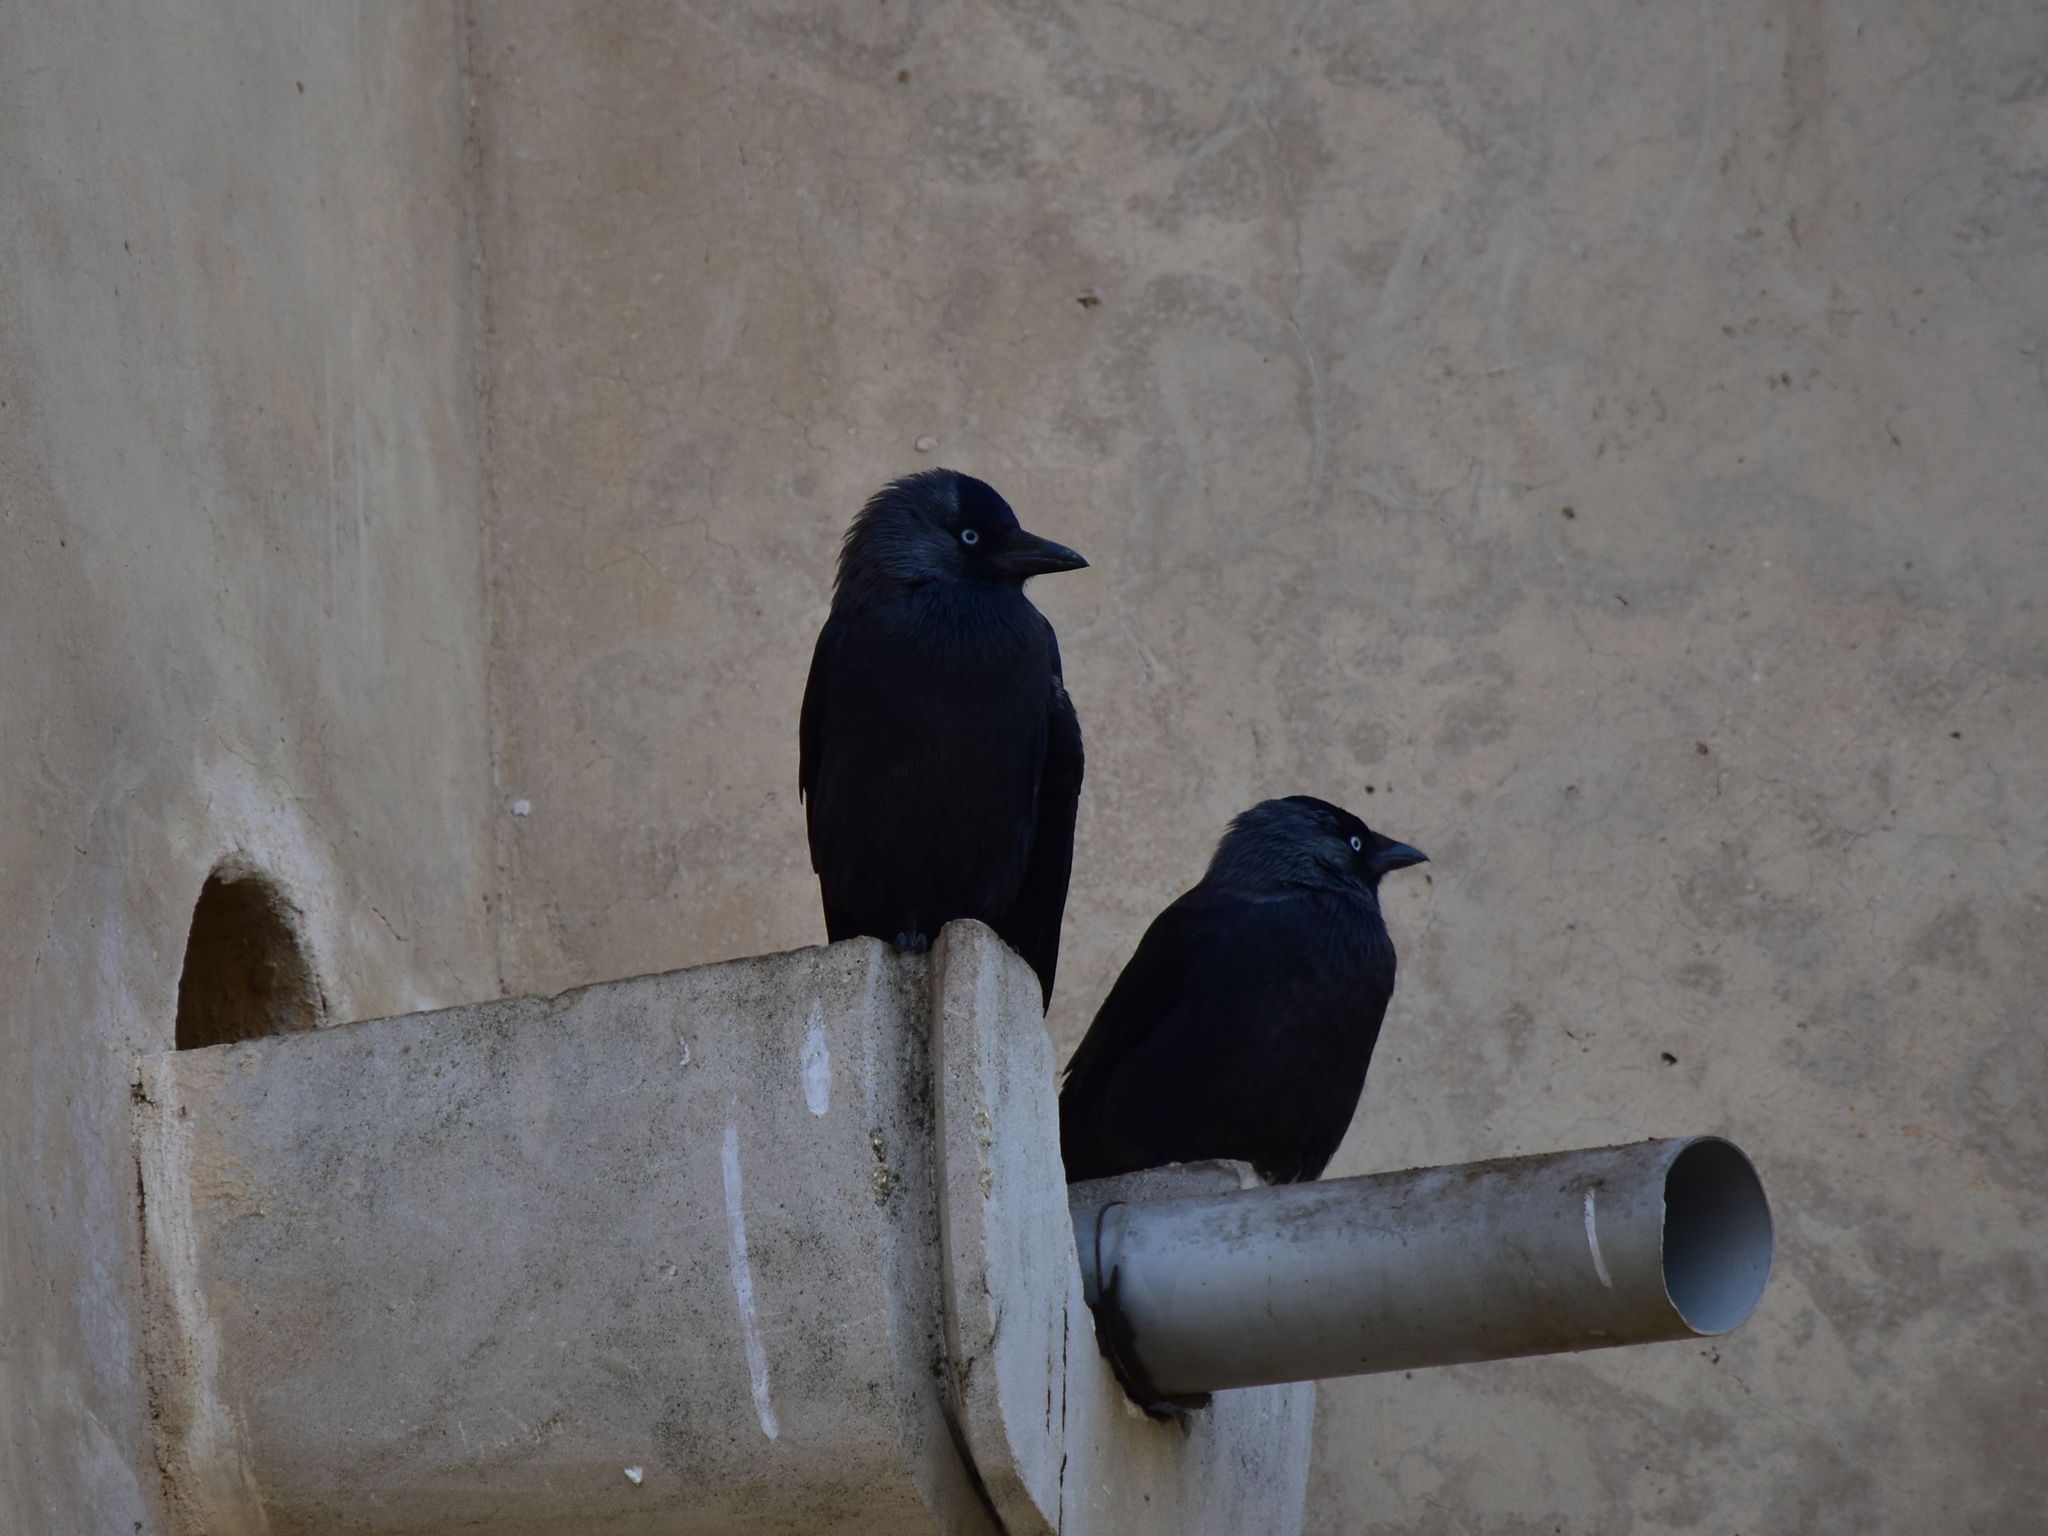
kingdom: Animalia
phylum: Chordata
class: Aves
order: Passeriformes
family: Corvidae
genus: Coloeus
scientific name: Coloeus monedula
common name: Western jackdaw
